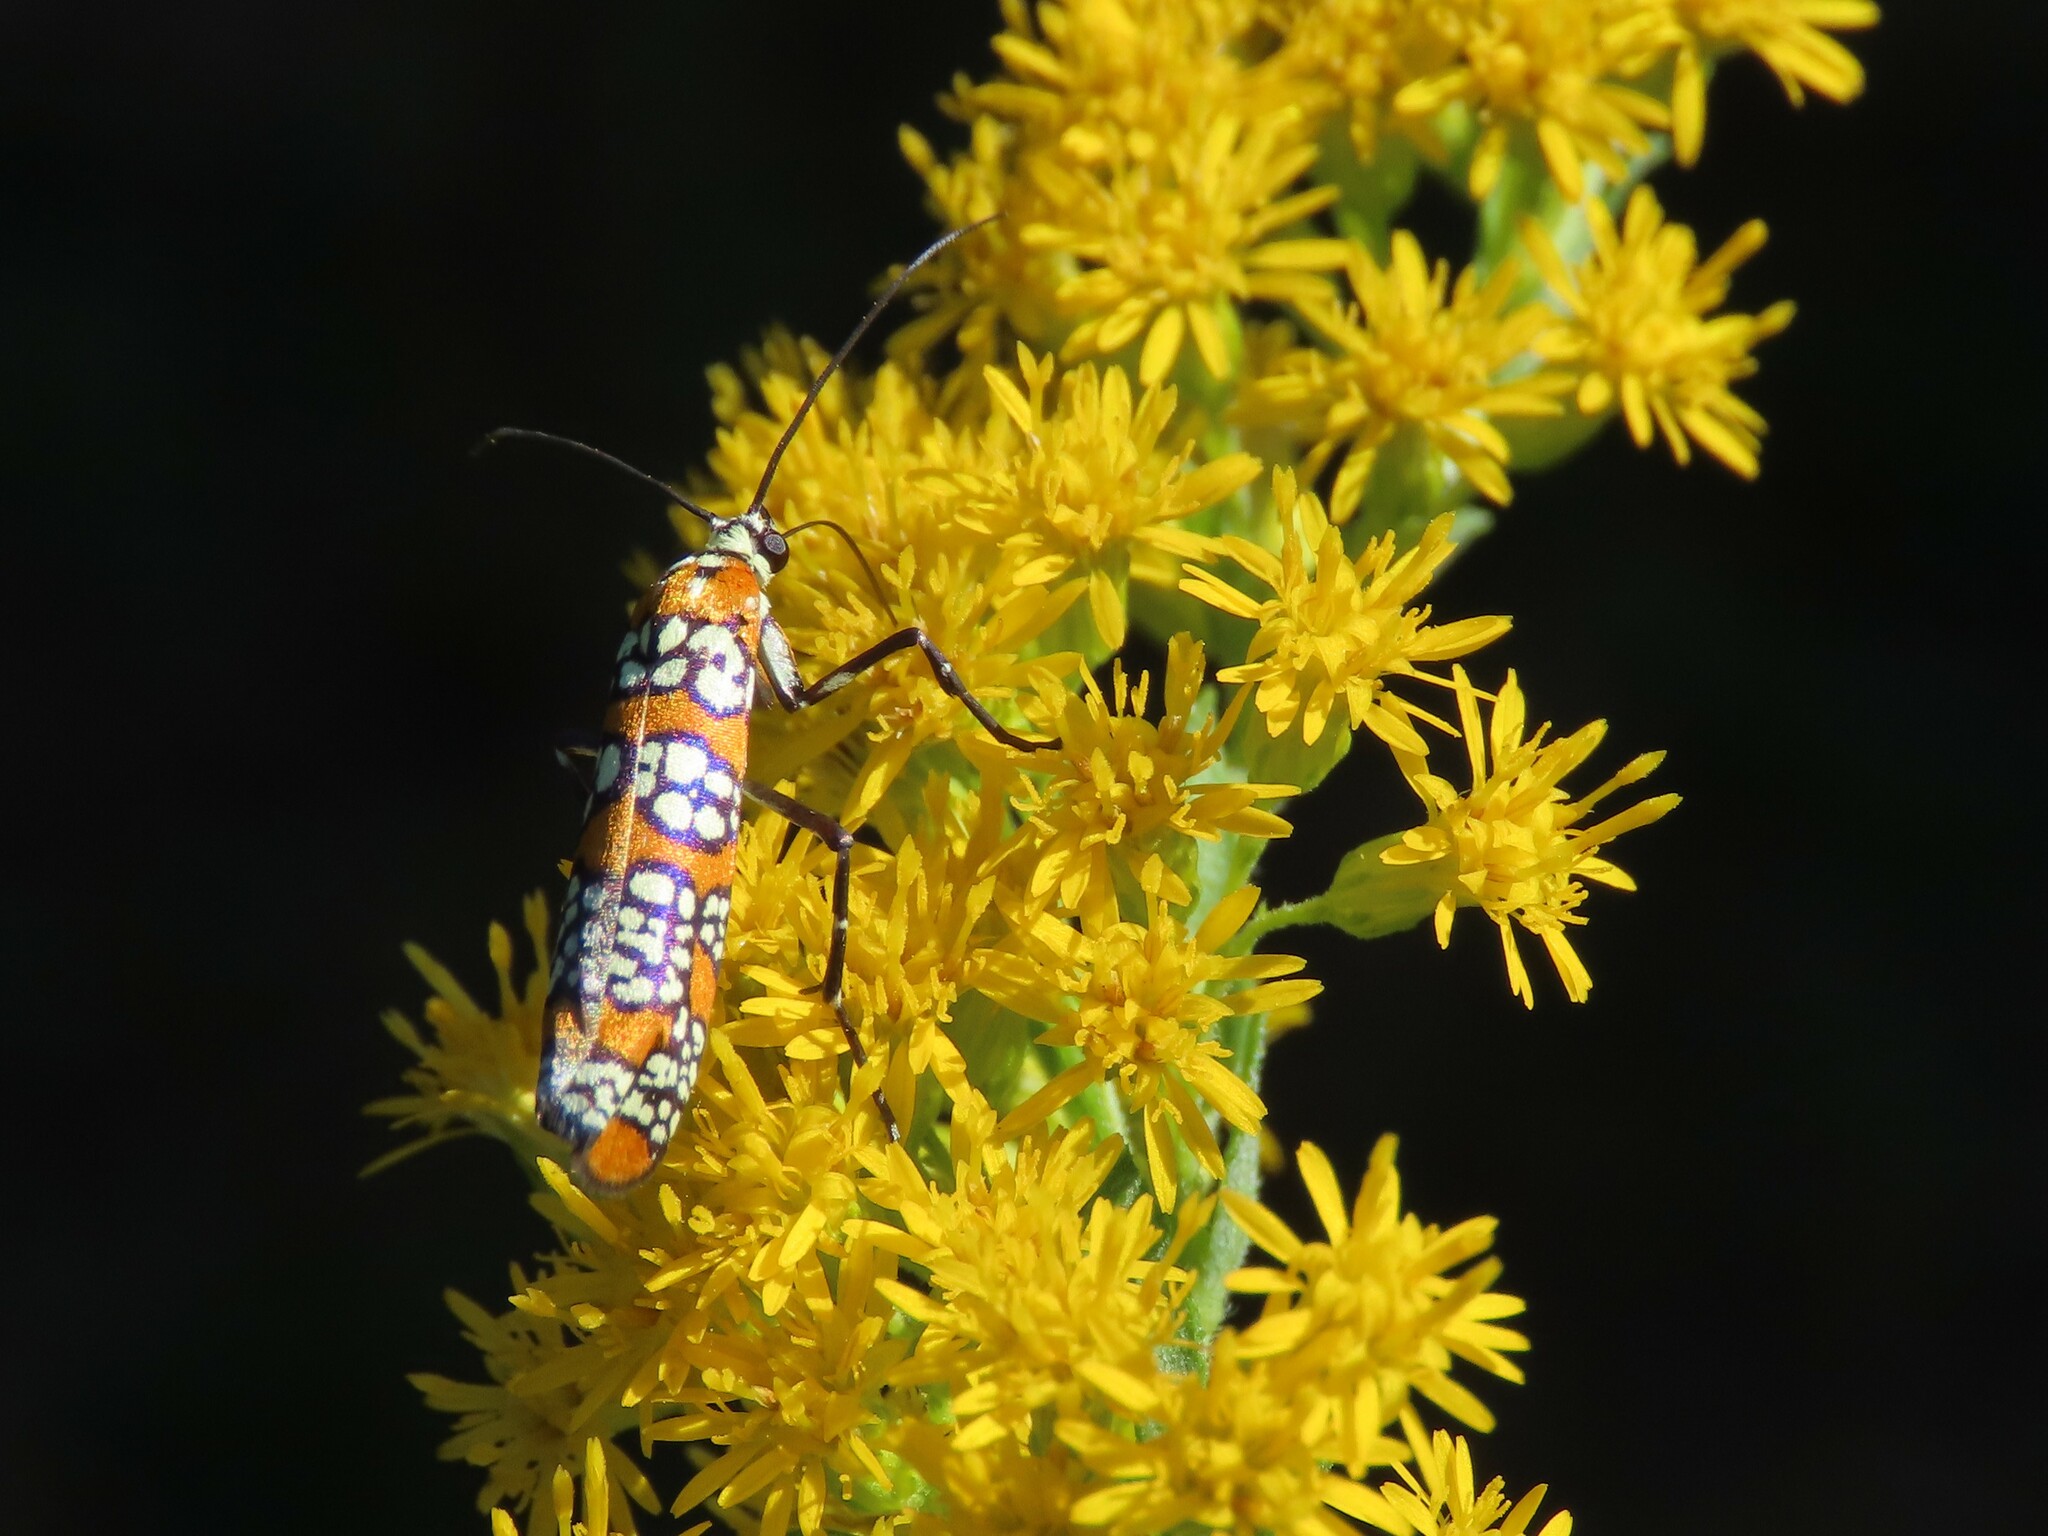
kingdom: Animalia
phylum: Arthropoda
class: Insecta
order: Lepidoptera
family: Attevidae
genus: Atteva
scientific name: Atteva punctella
